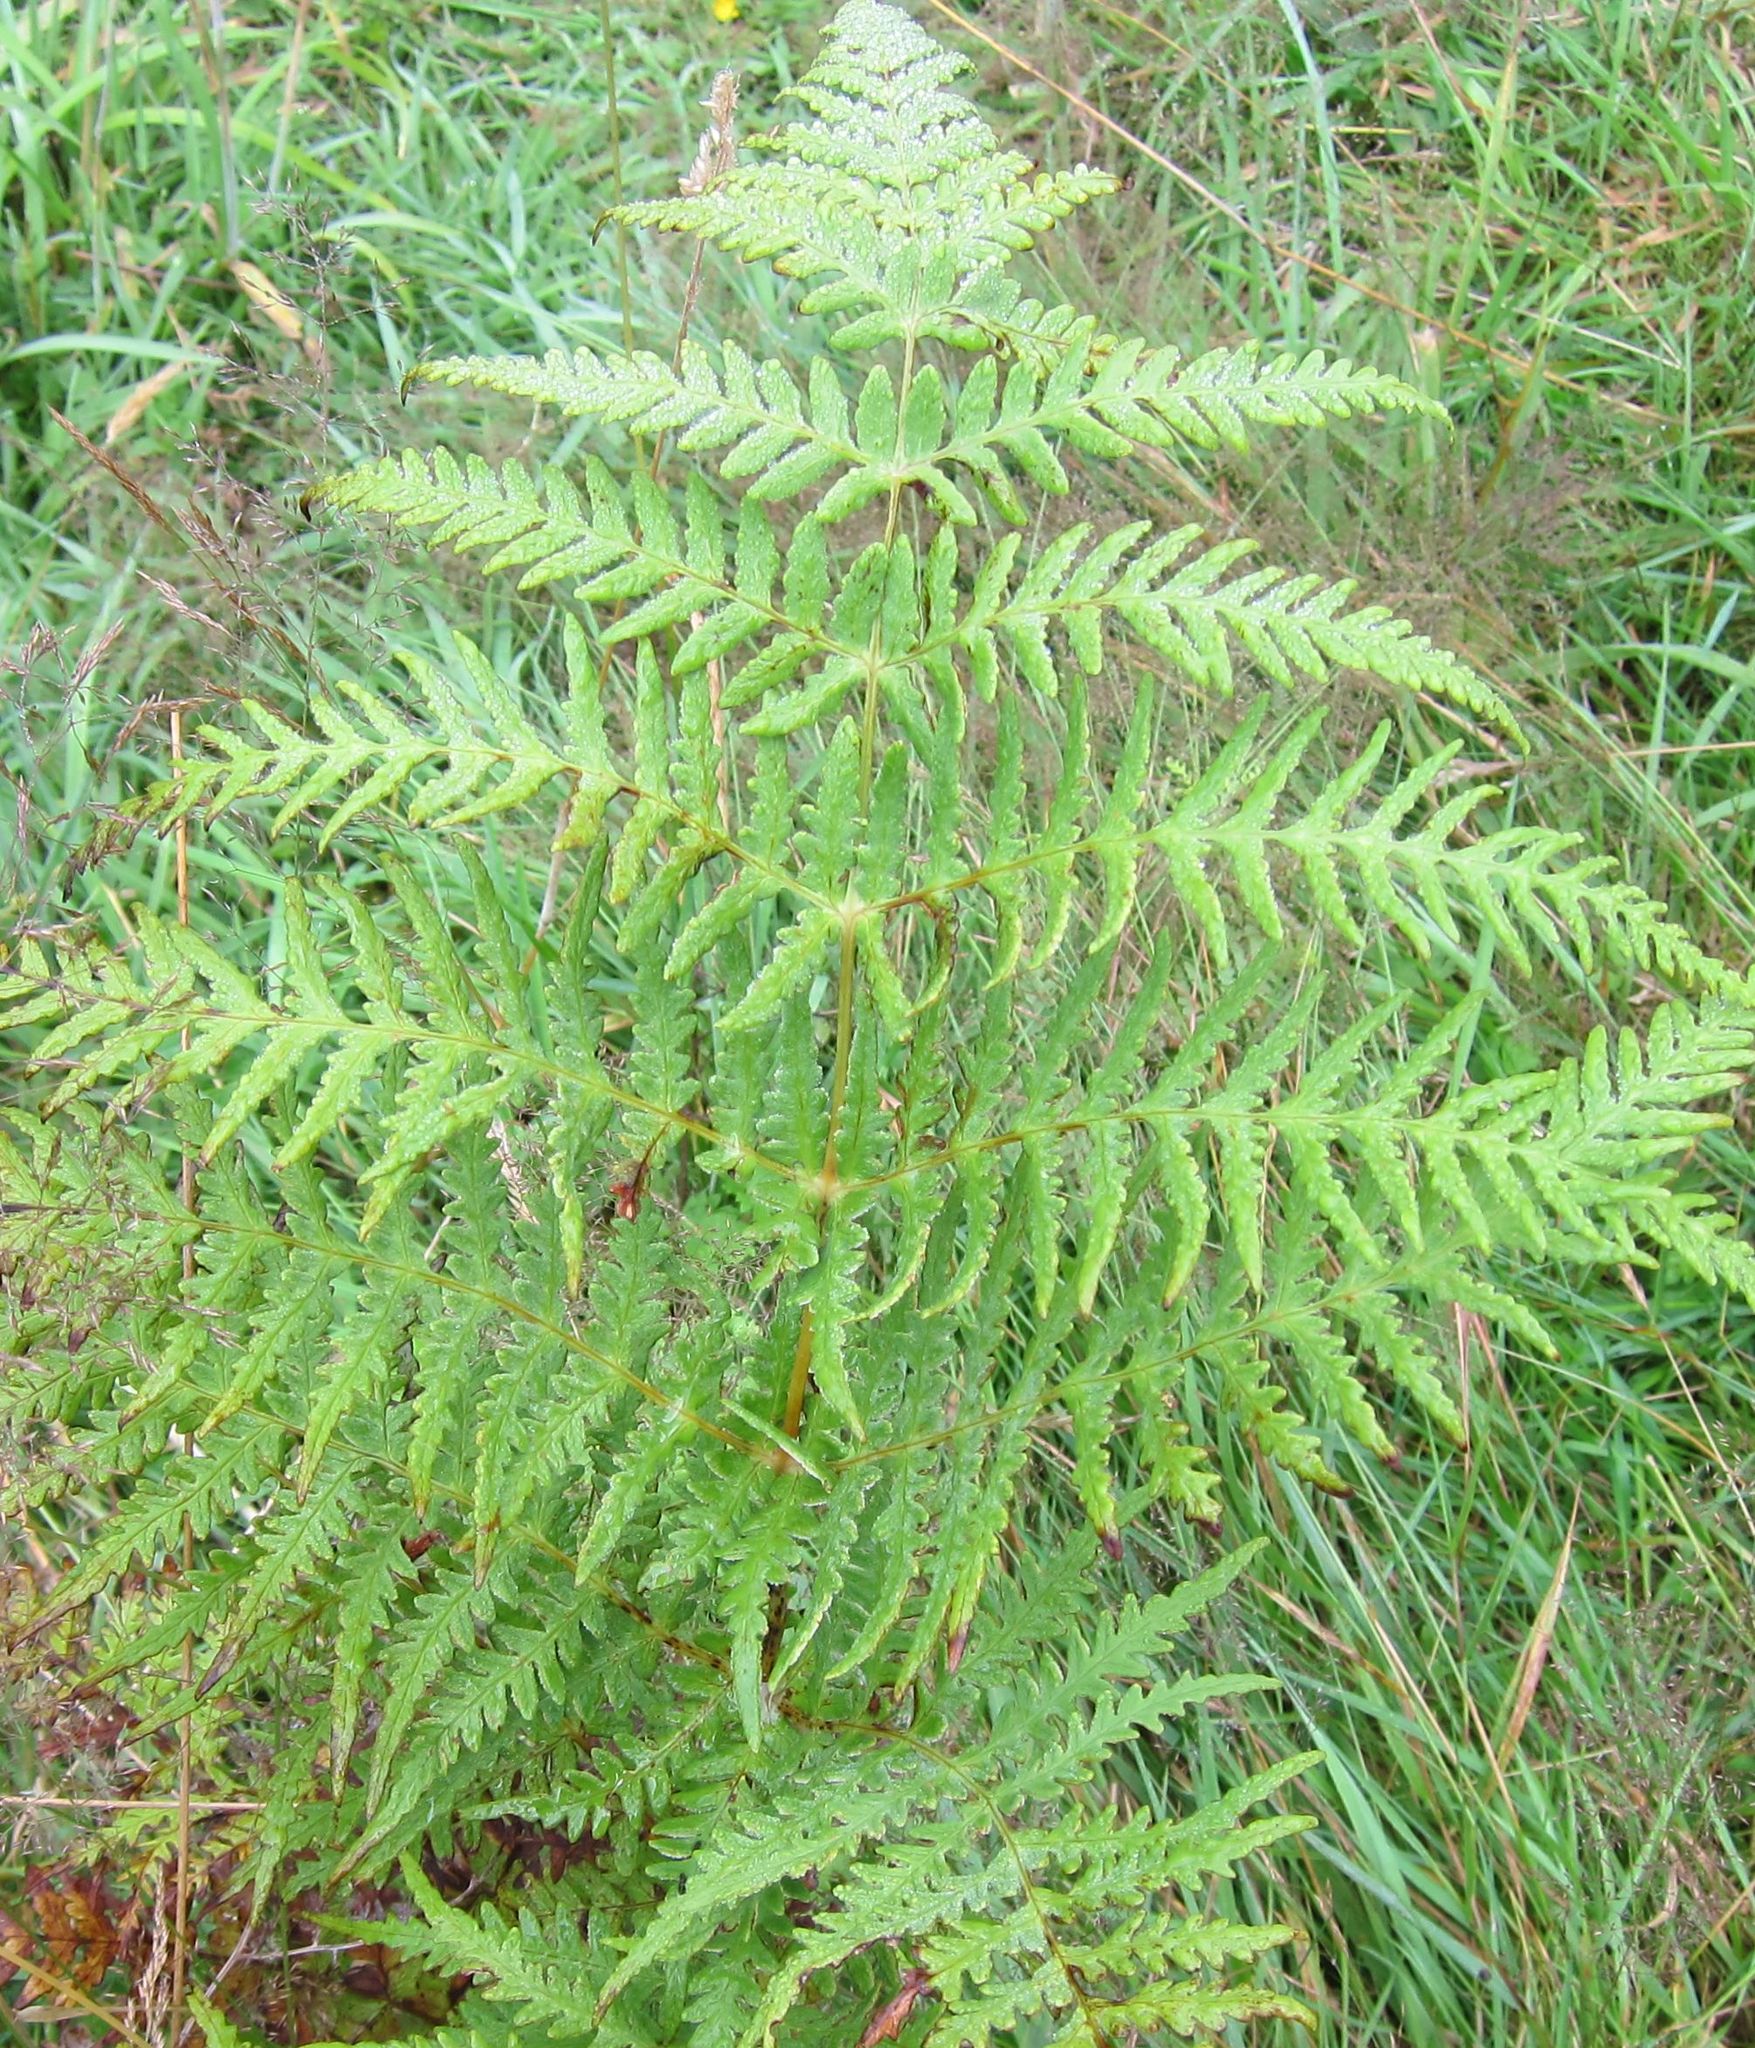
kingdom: Plantae
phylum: Tracheophyta
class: Polypodiopsida
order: Polypodiales
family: Dennstaedtiaceae
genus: Histiopteris
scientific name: Histiopteris incisa
